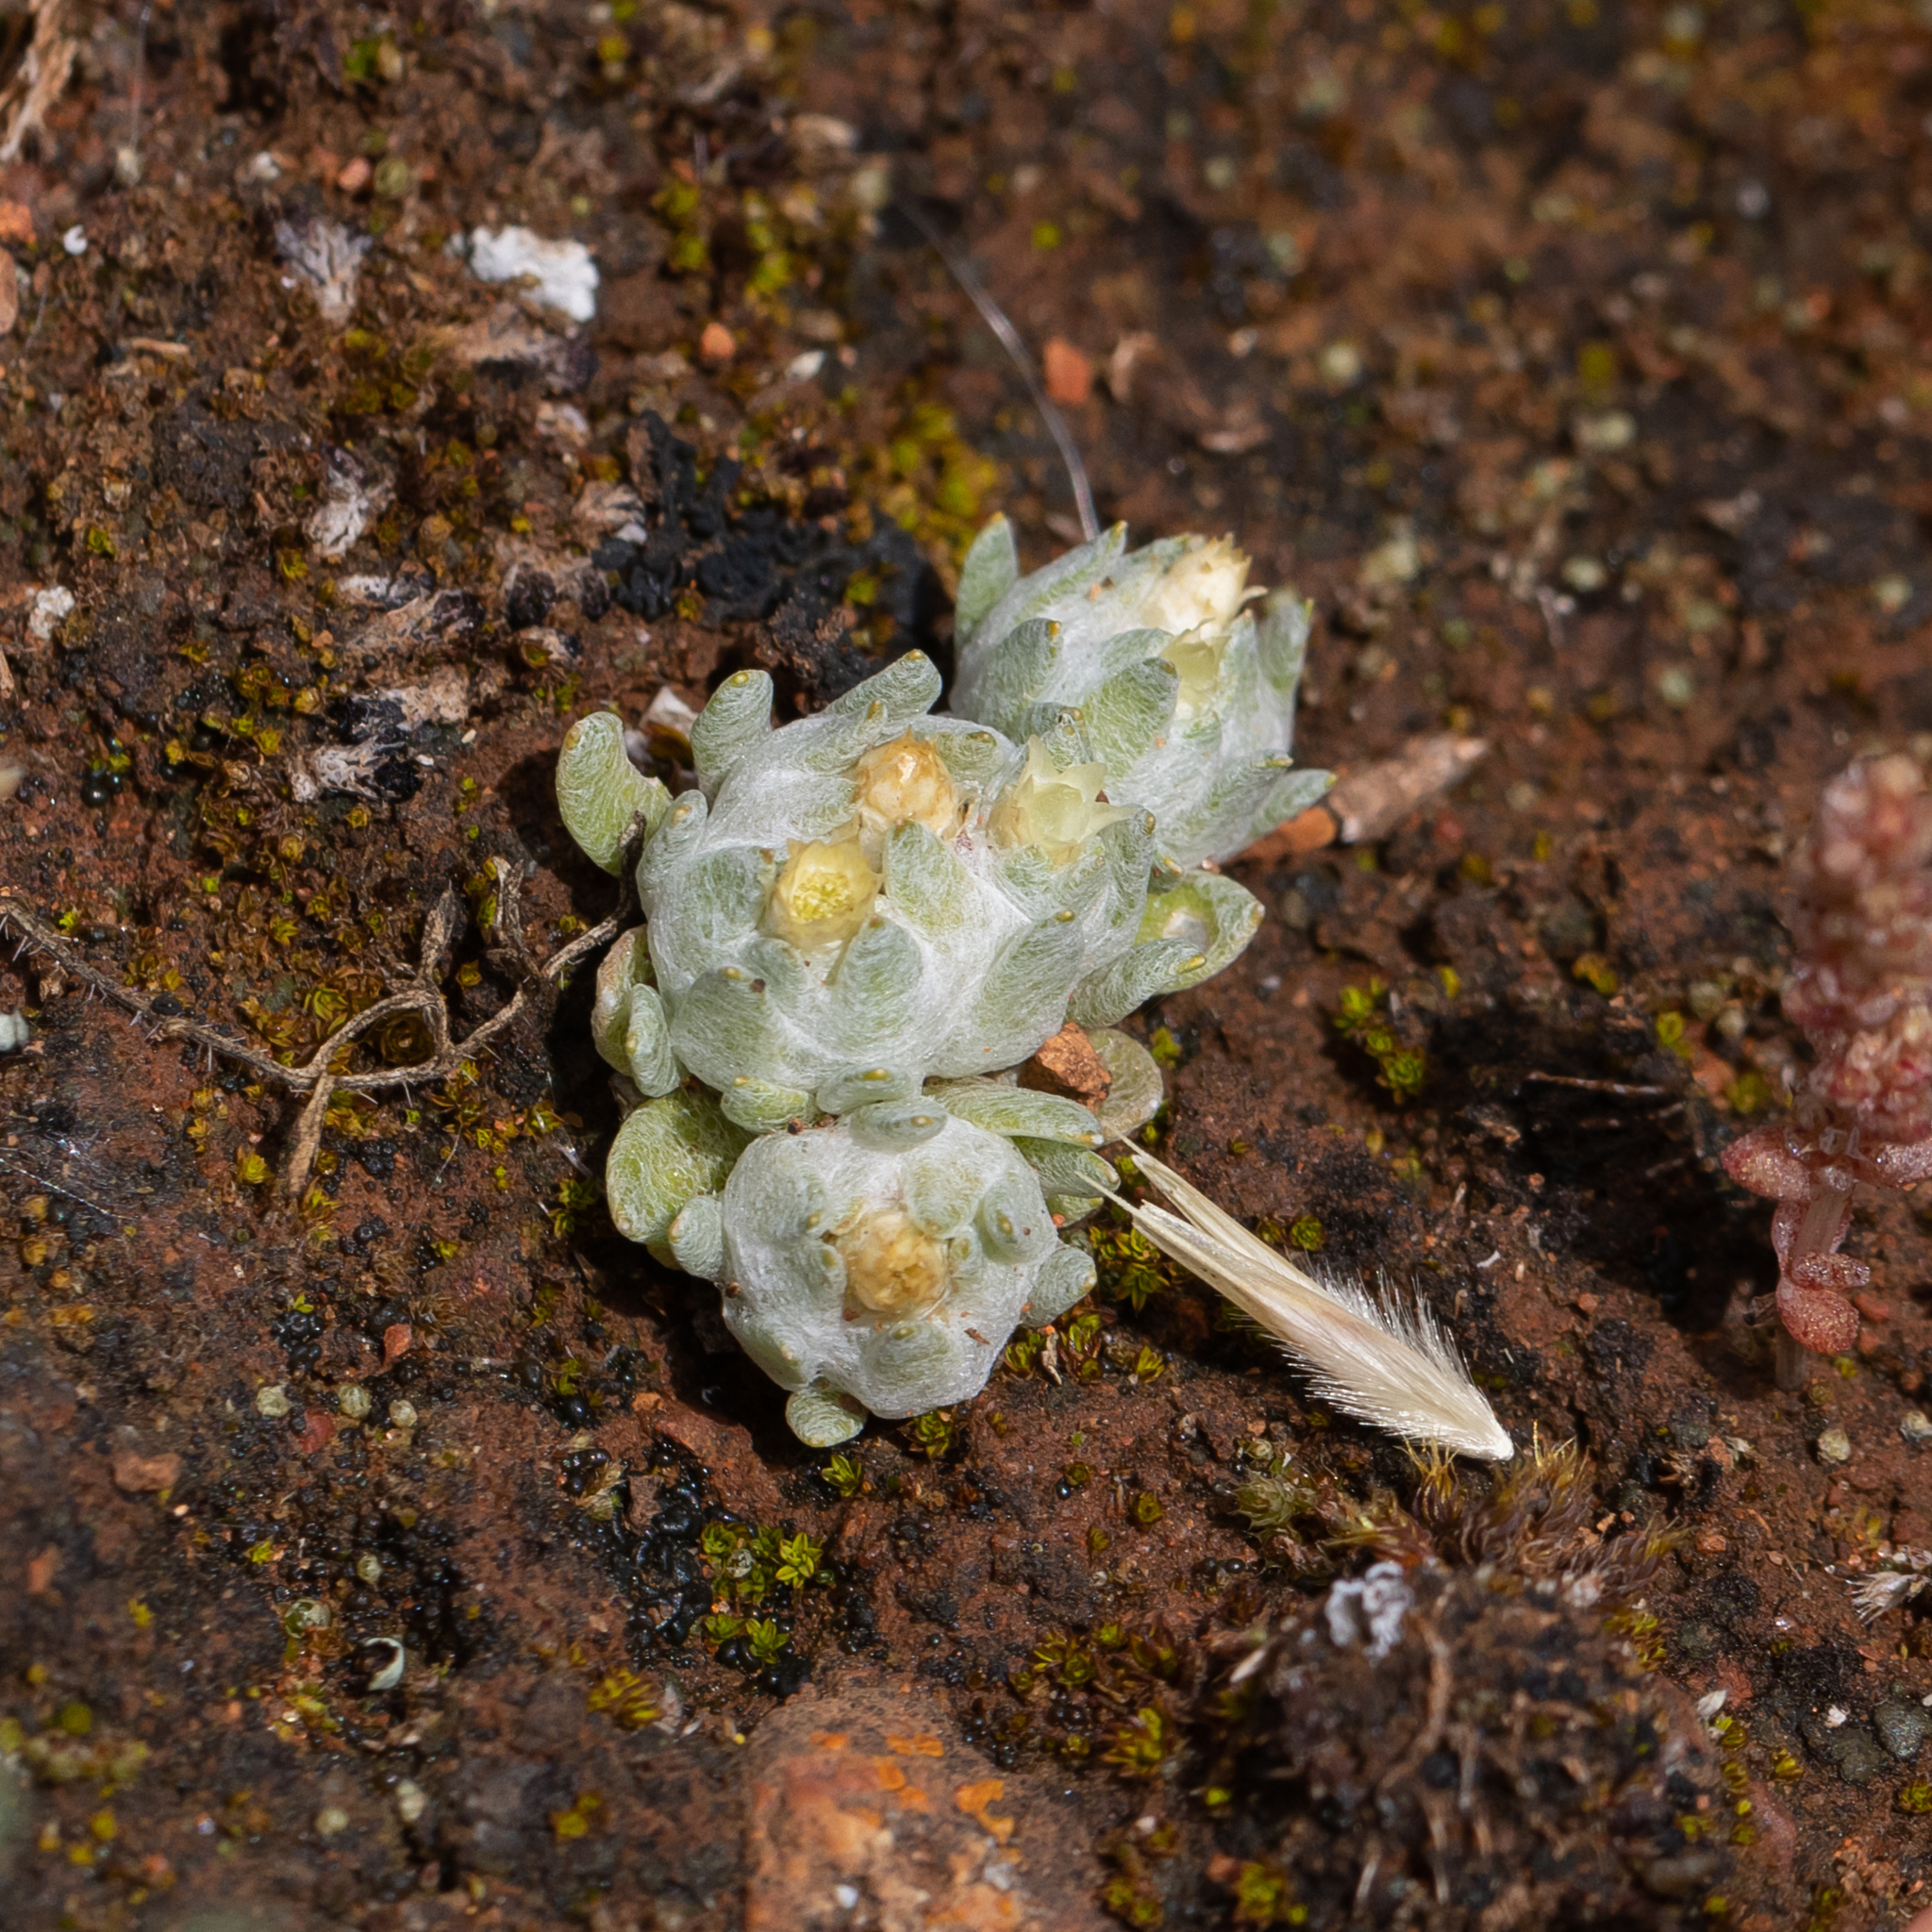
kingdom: Plantae
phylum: Tracheophyta
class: Magnoliopsida
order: Asterales
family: Asteraceae
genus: Actinobole
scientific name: Actinobole uliginosum
